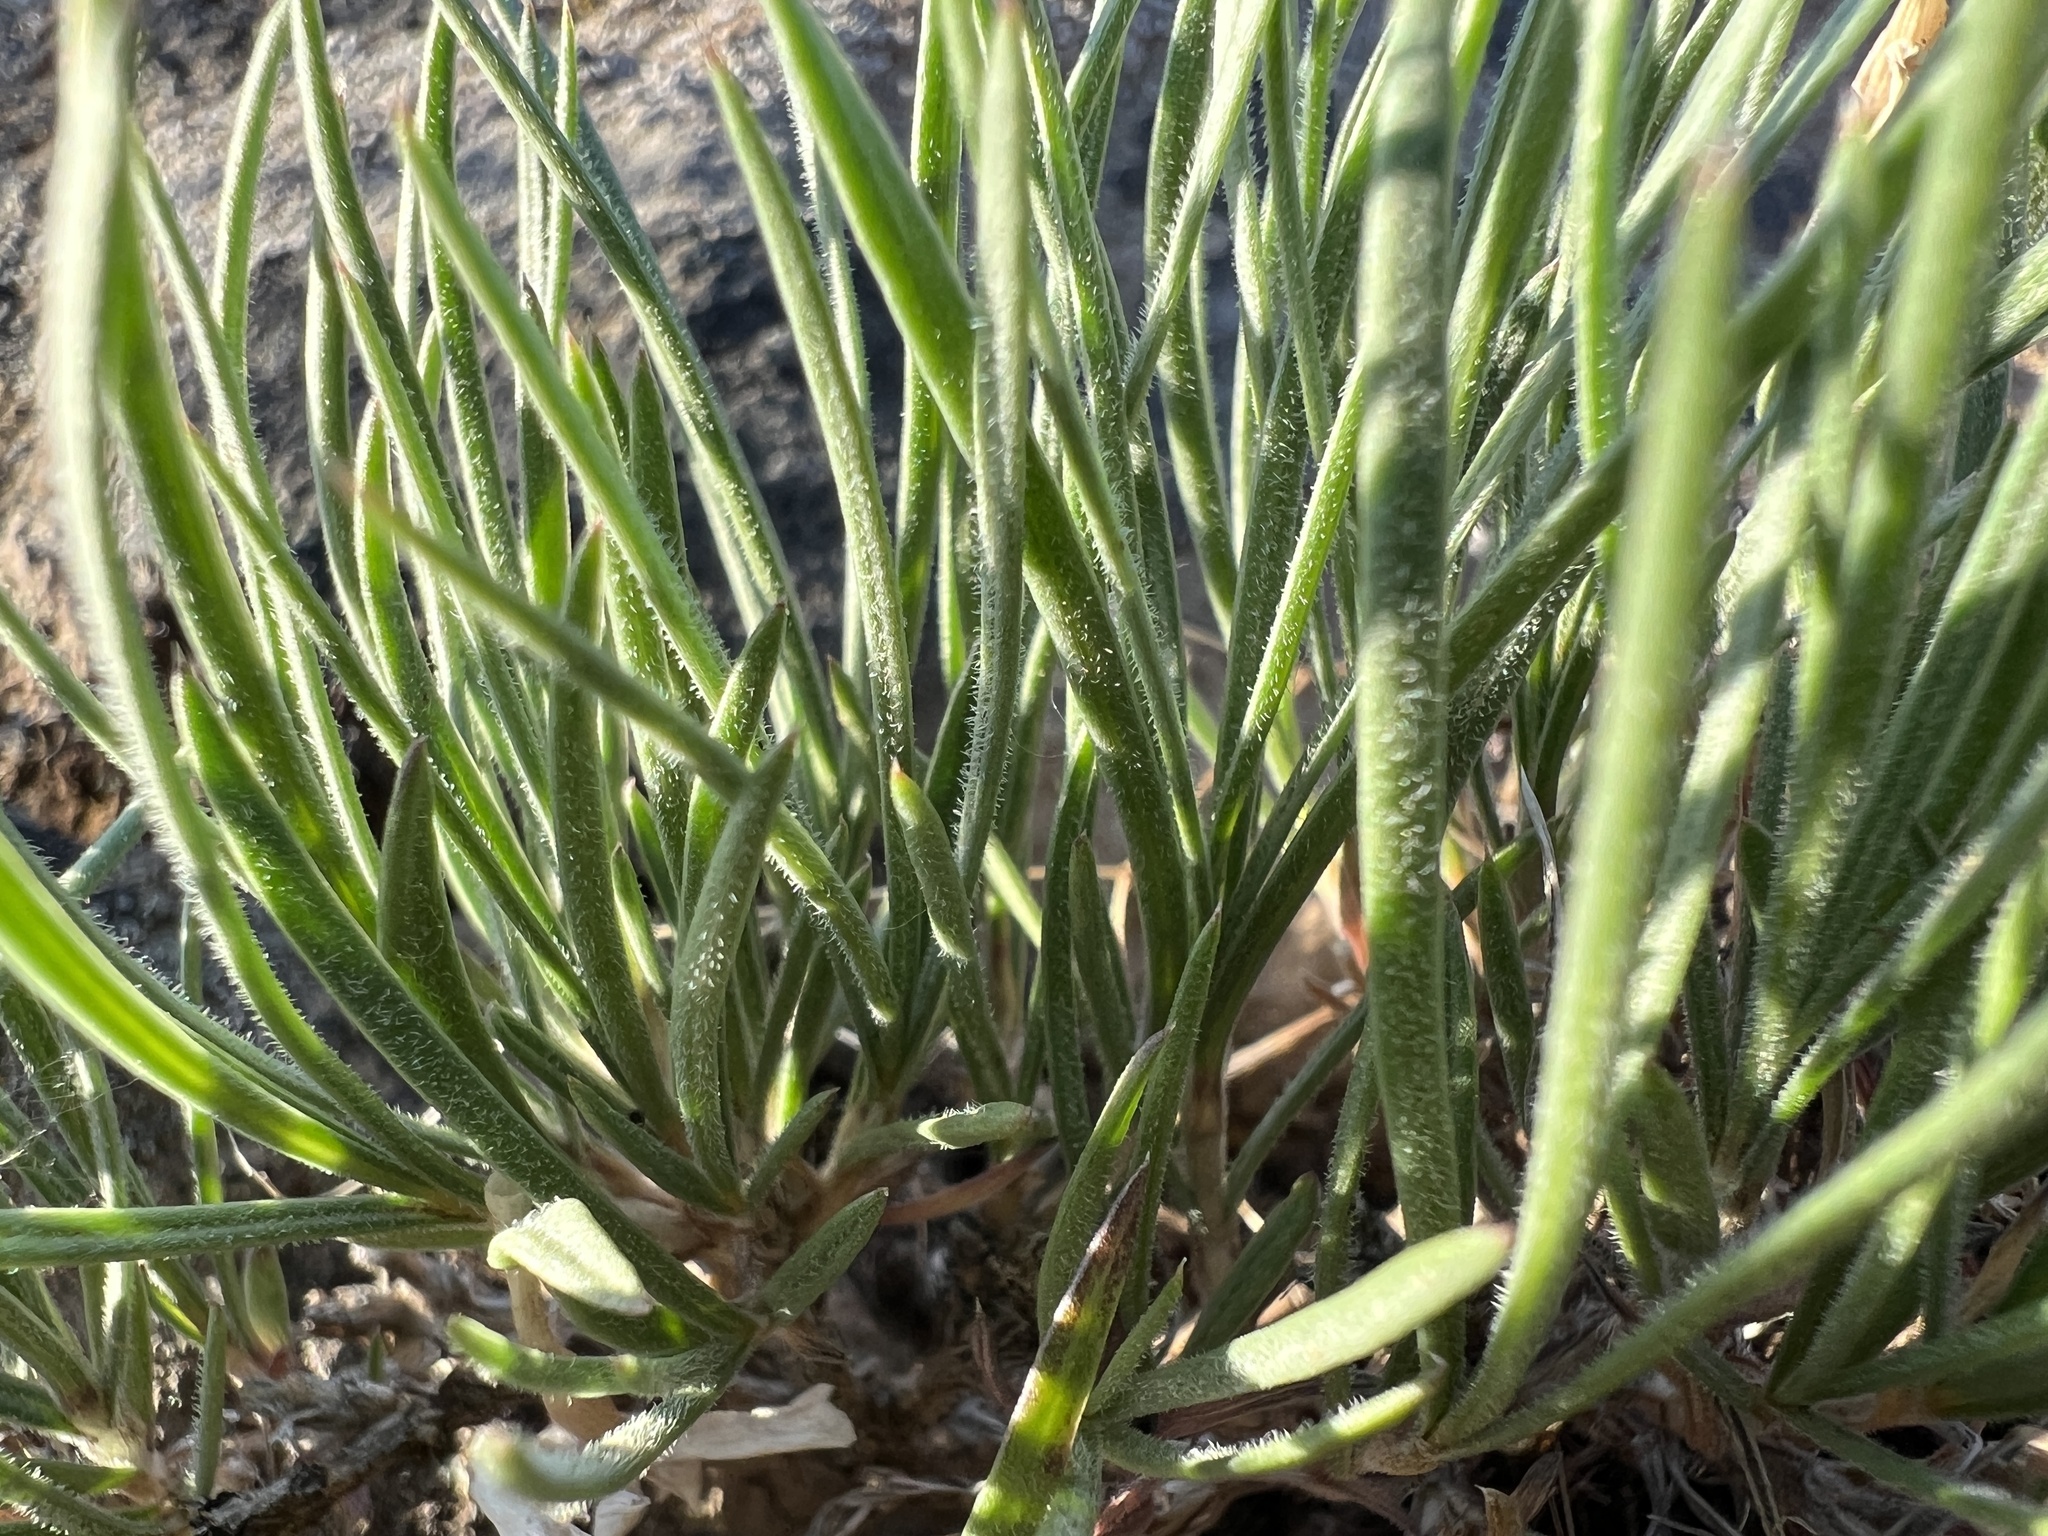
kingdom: Plantae
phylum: Tracheophyta
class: Magnoliopsida
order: Ericales
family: Polemoniaceae
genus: Phlox
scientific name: Phlox longifolia
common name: Longleaf phlox
